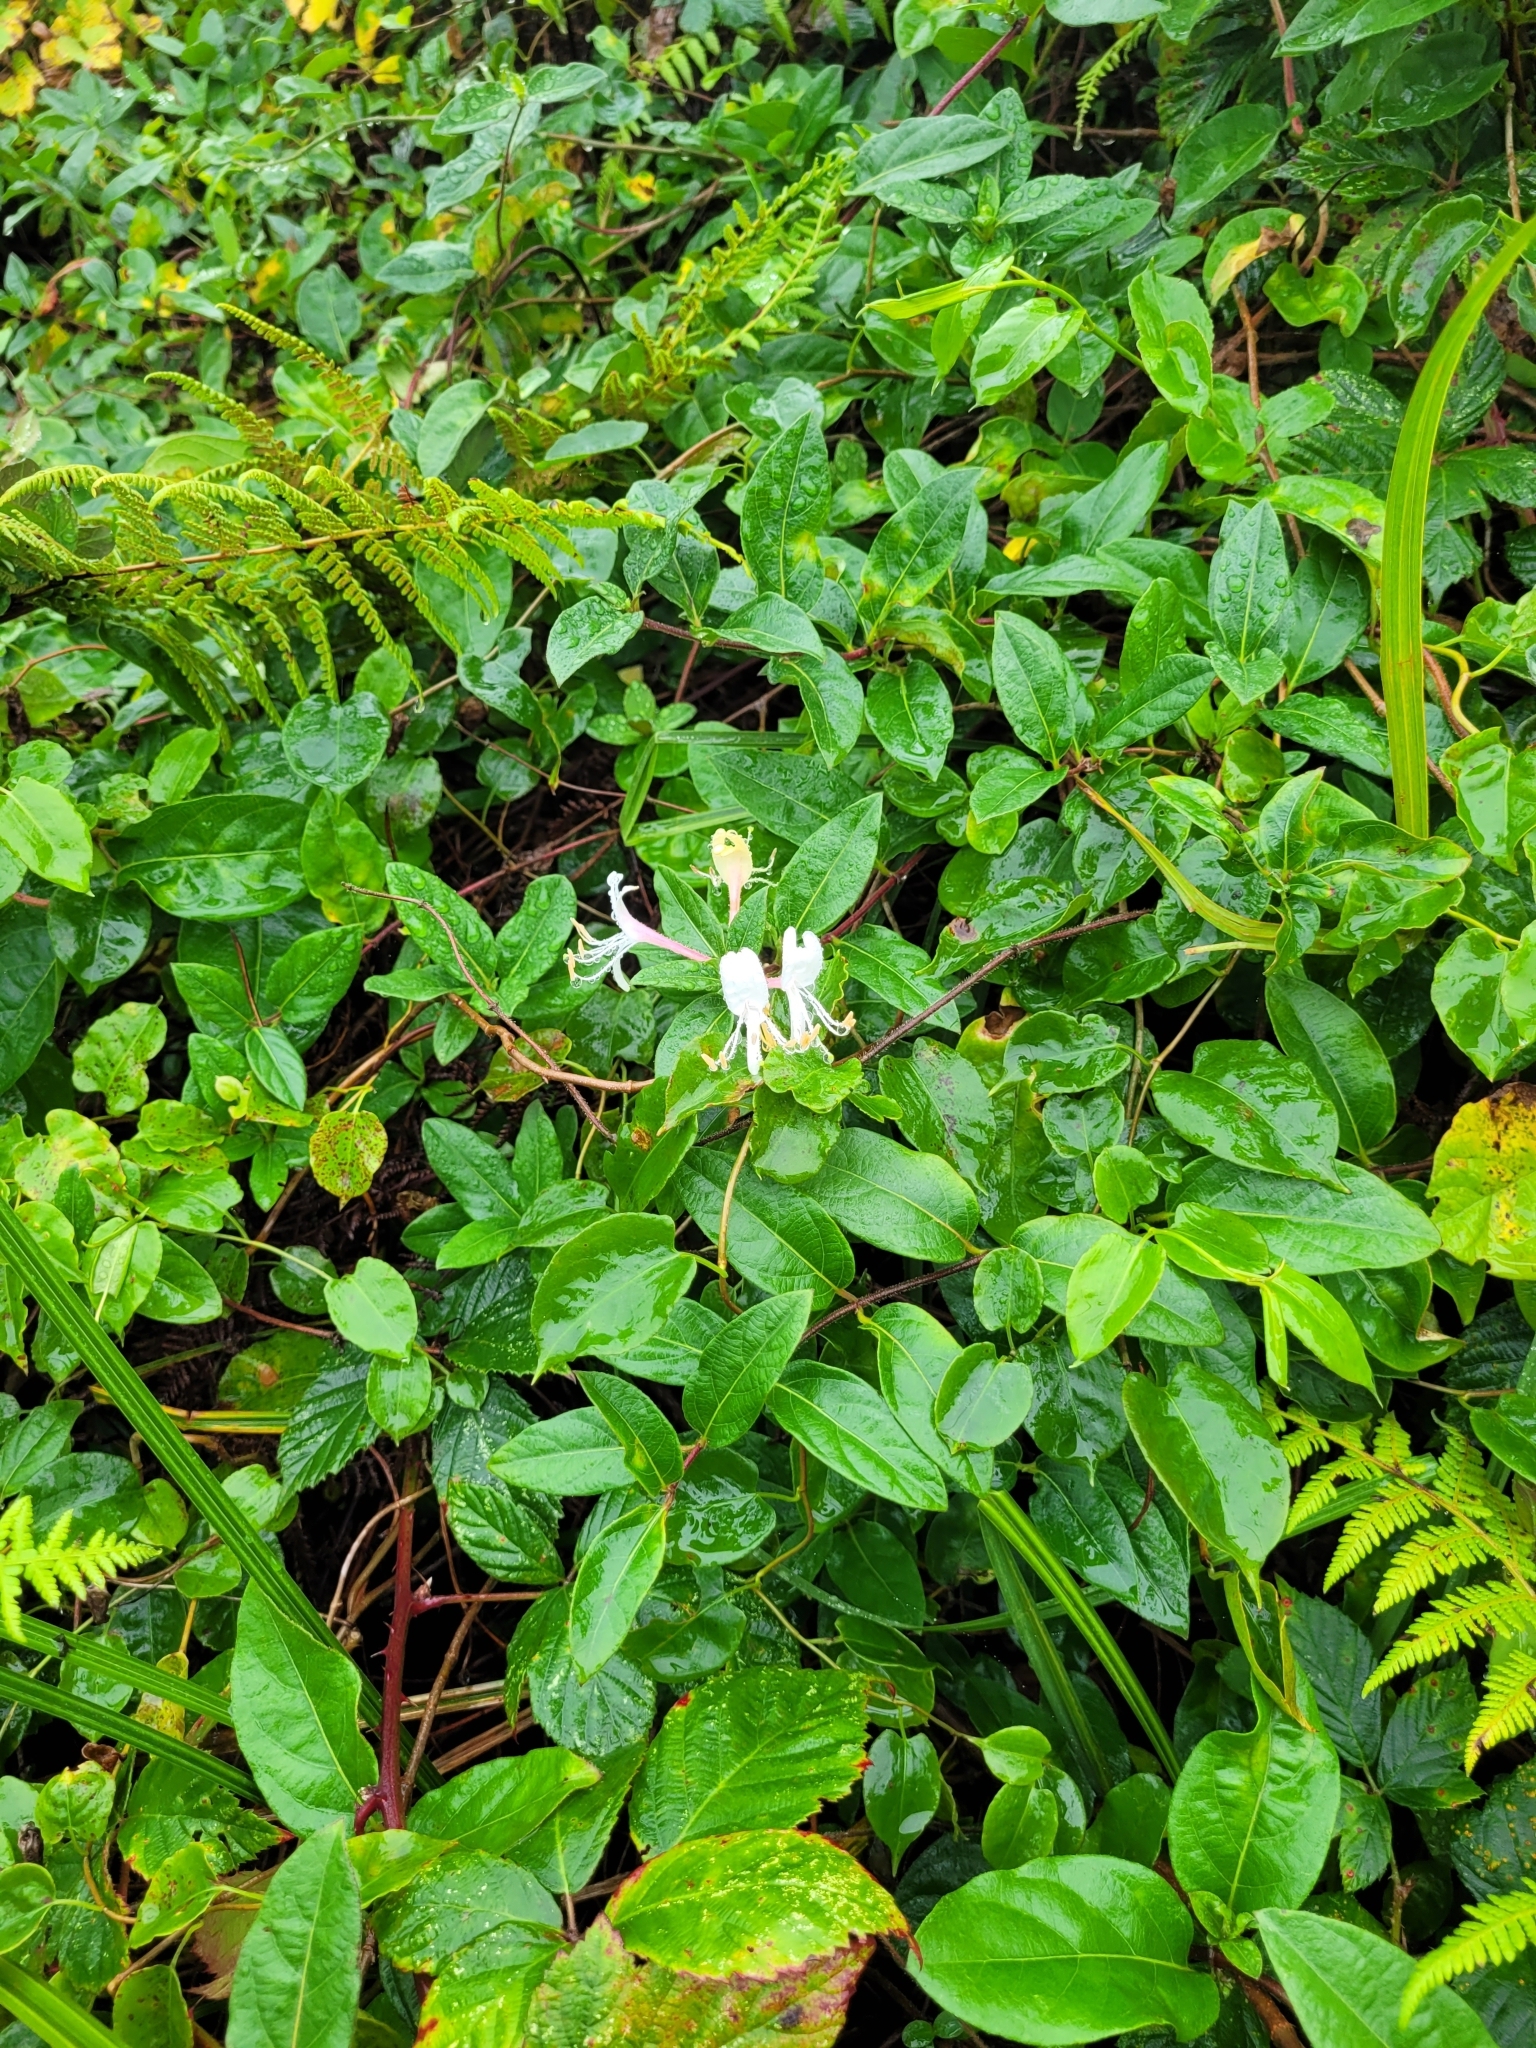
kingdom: Plantae
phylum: Tracheophyta
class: Magnoliopsida
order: Dipsacales
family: Caprifoliaceae
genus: Lonicera
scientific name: Lonicera japonica
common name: Japanese honeysuckle
